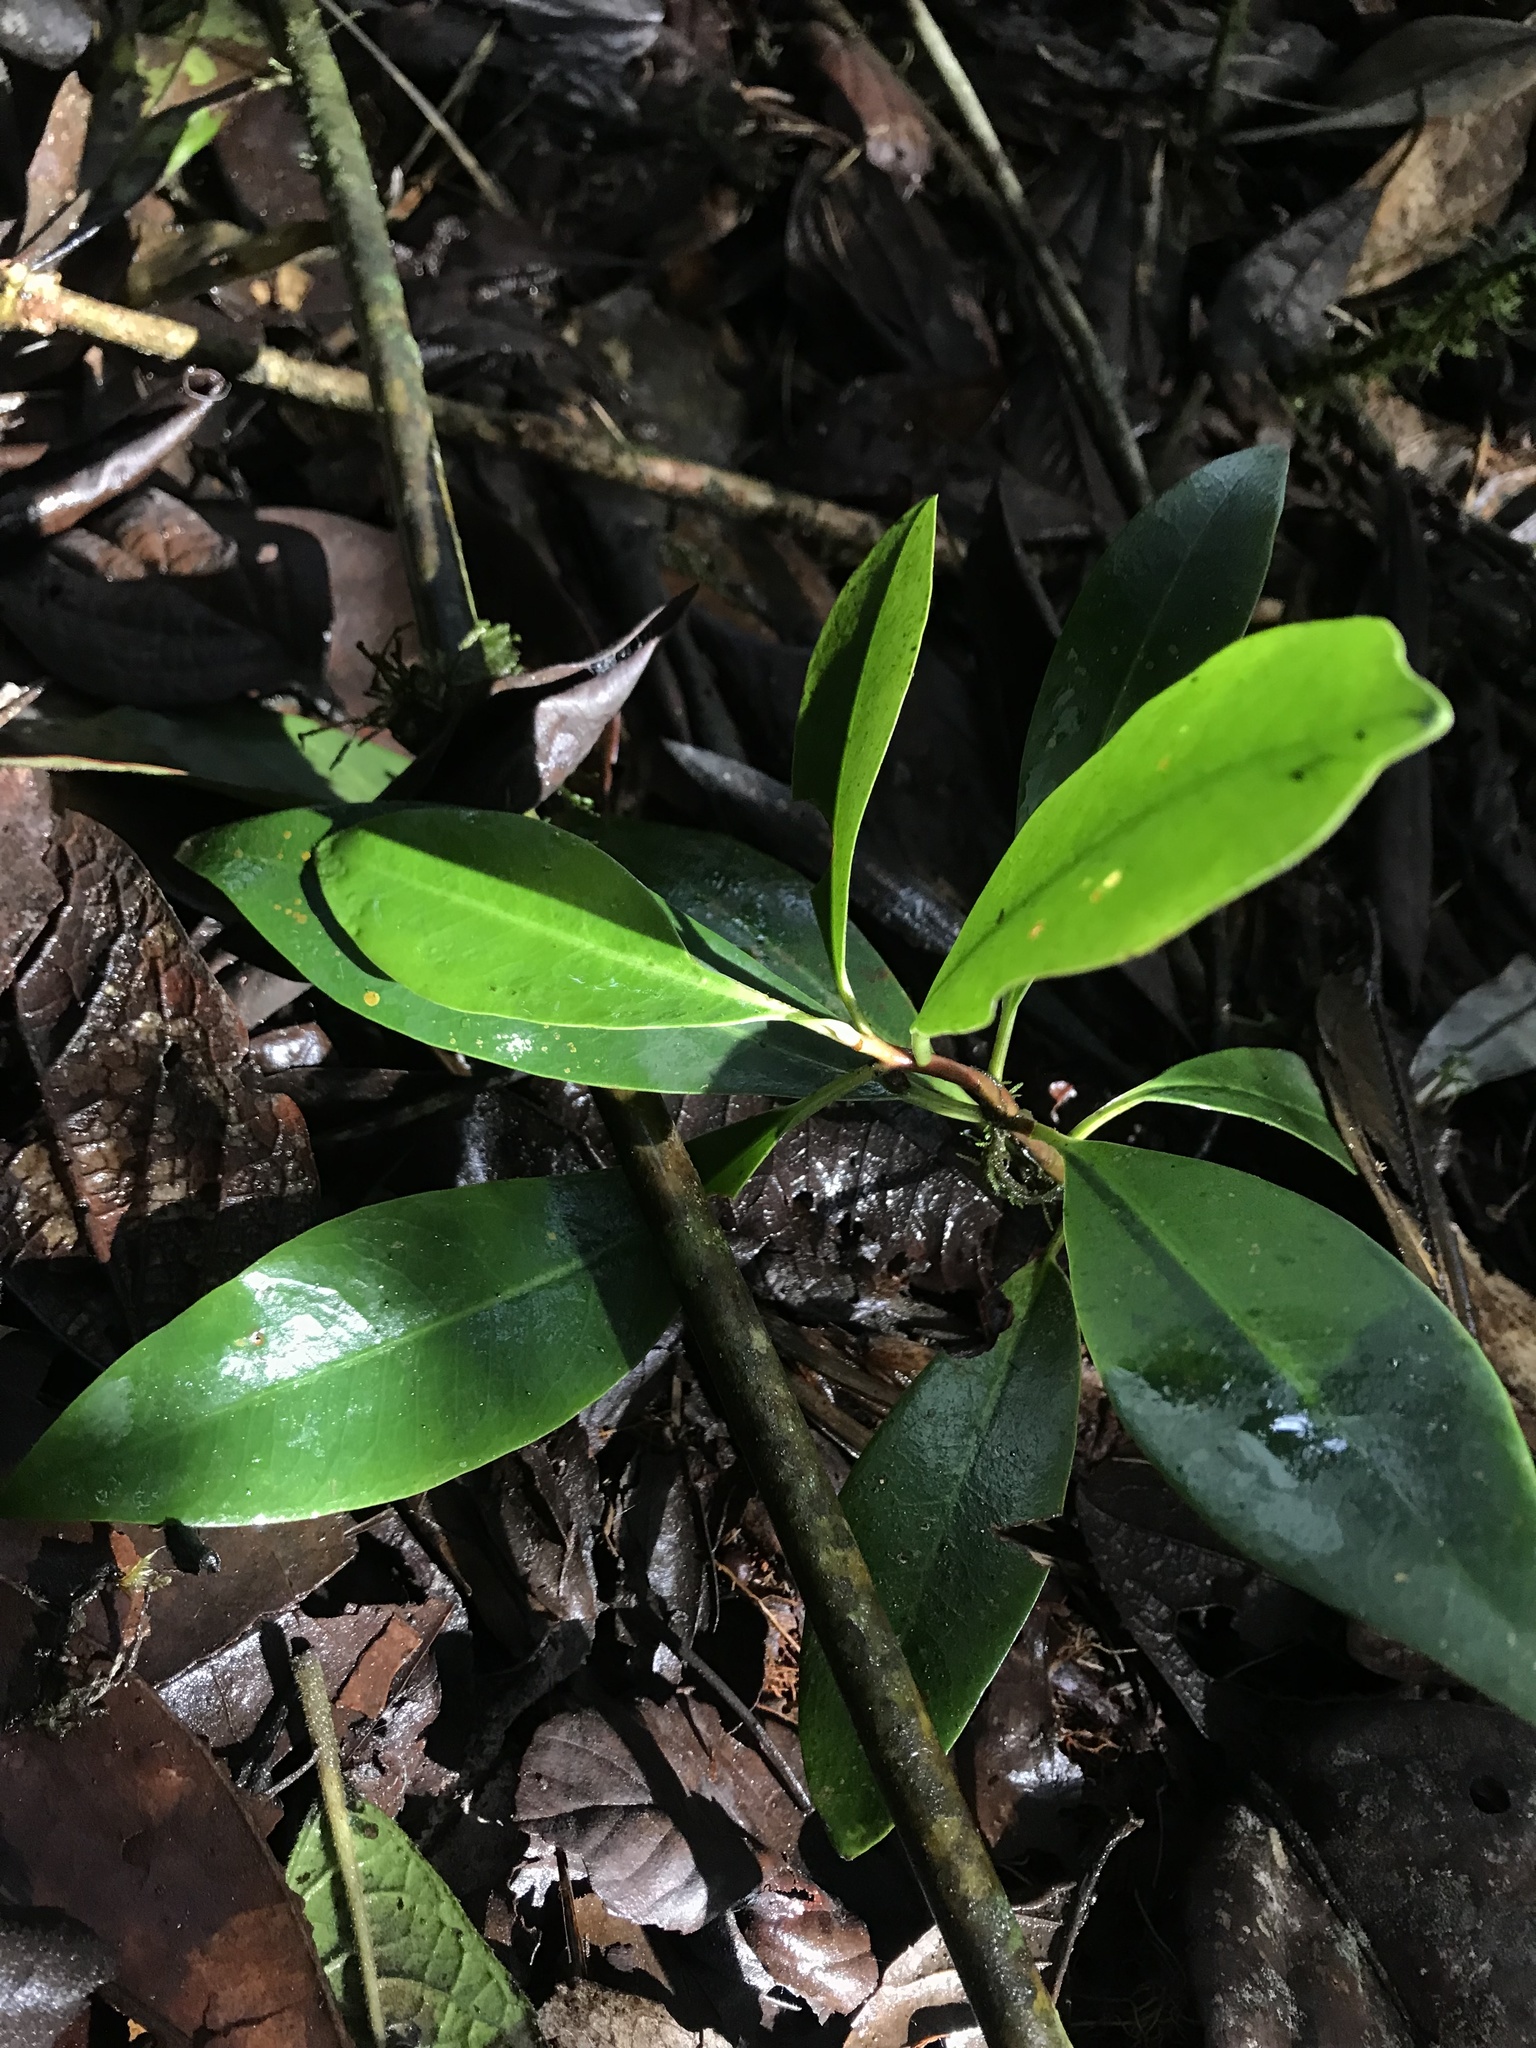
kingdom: Plantae
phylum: Tracheophyta
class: Magnoliopsida
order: Canellales
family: Winteraceae
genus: Drimys
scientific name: Drimys granadensis
